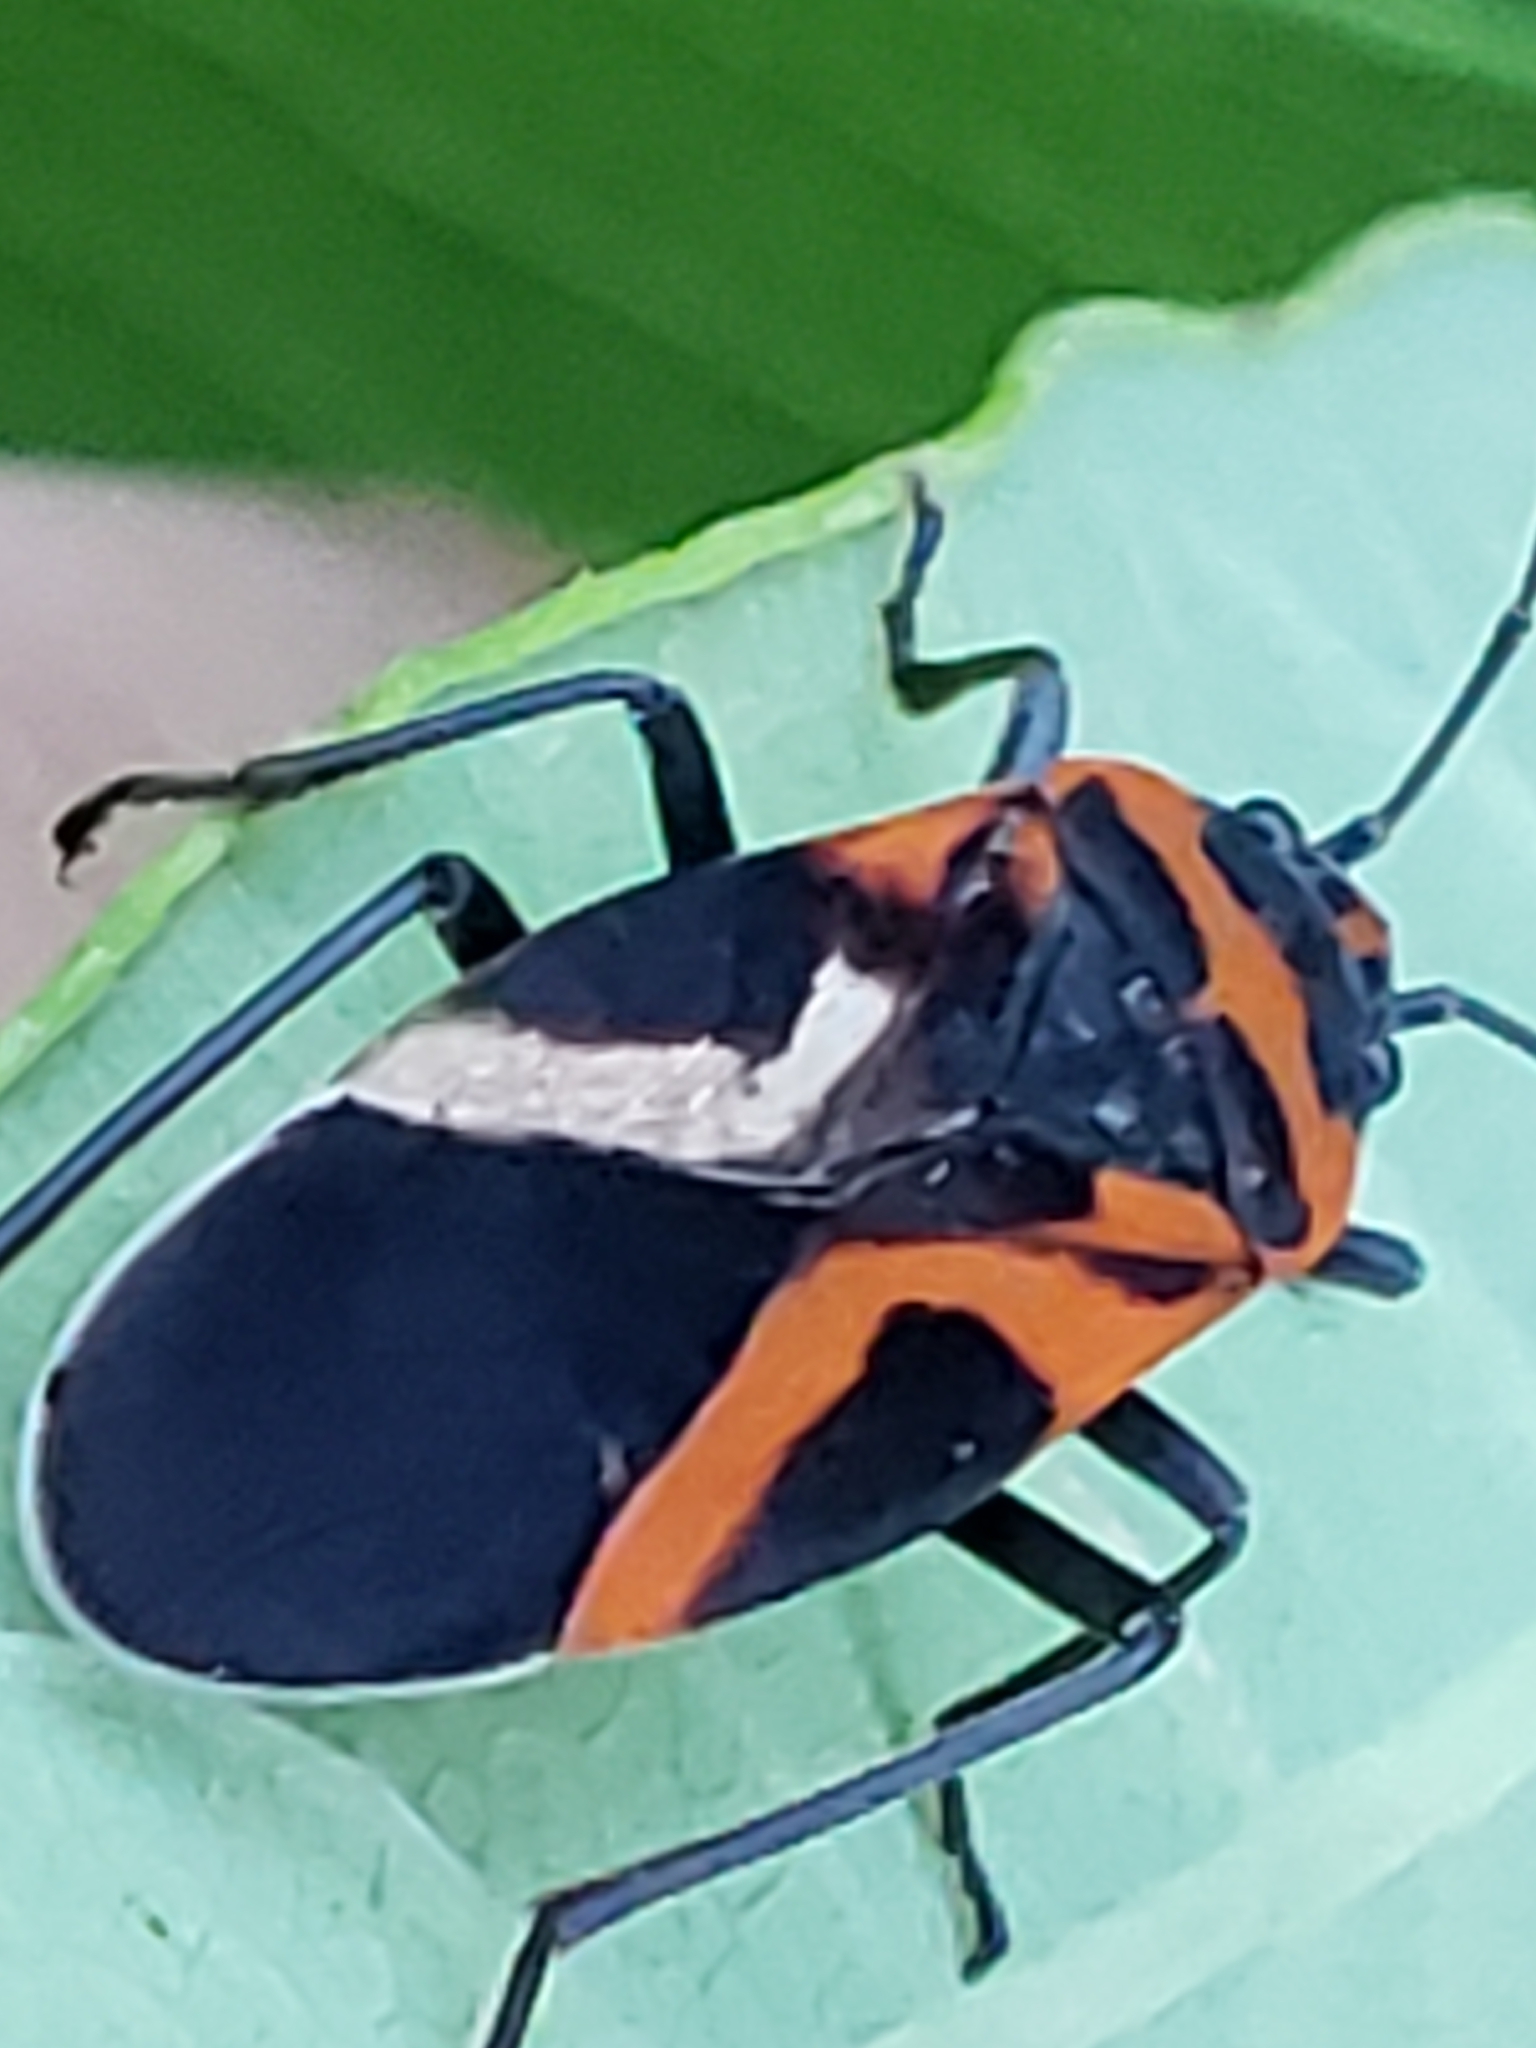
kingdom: Animalia
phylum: Arthropoda
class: Insecta
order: Hemiptera
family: Lygaeidae
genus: Lygaeus
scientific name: Lygaeus turcicus
